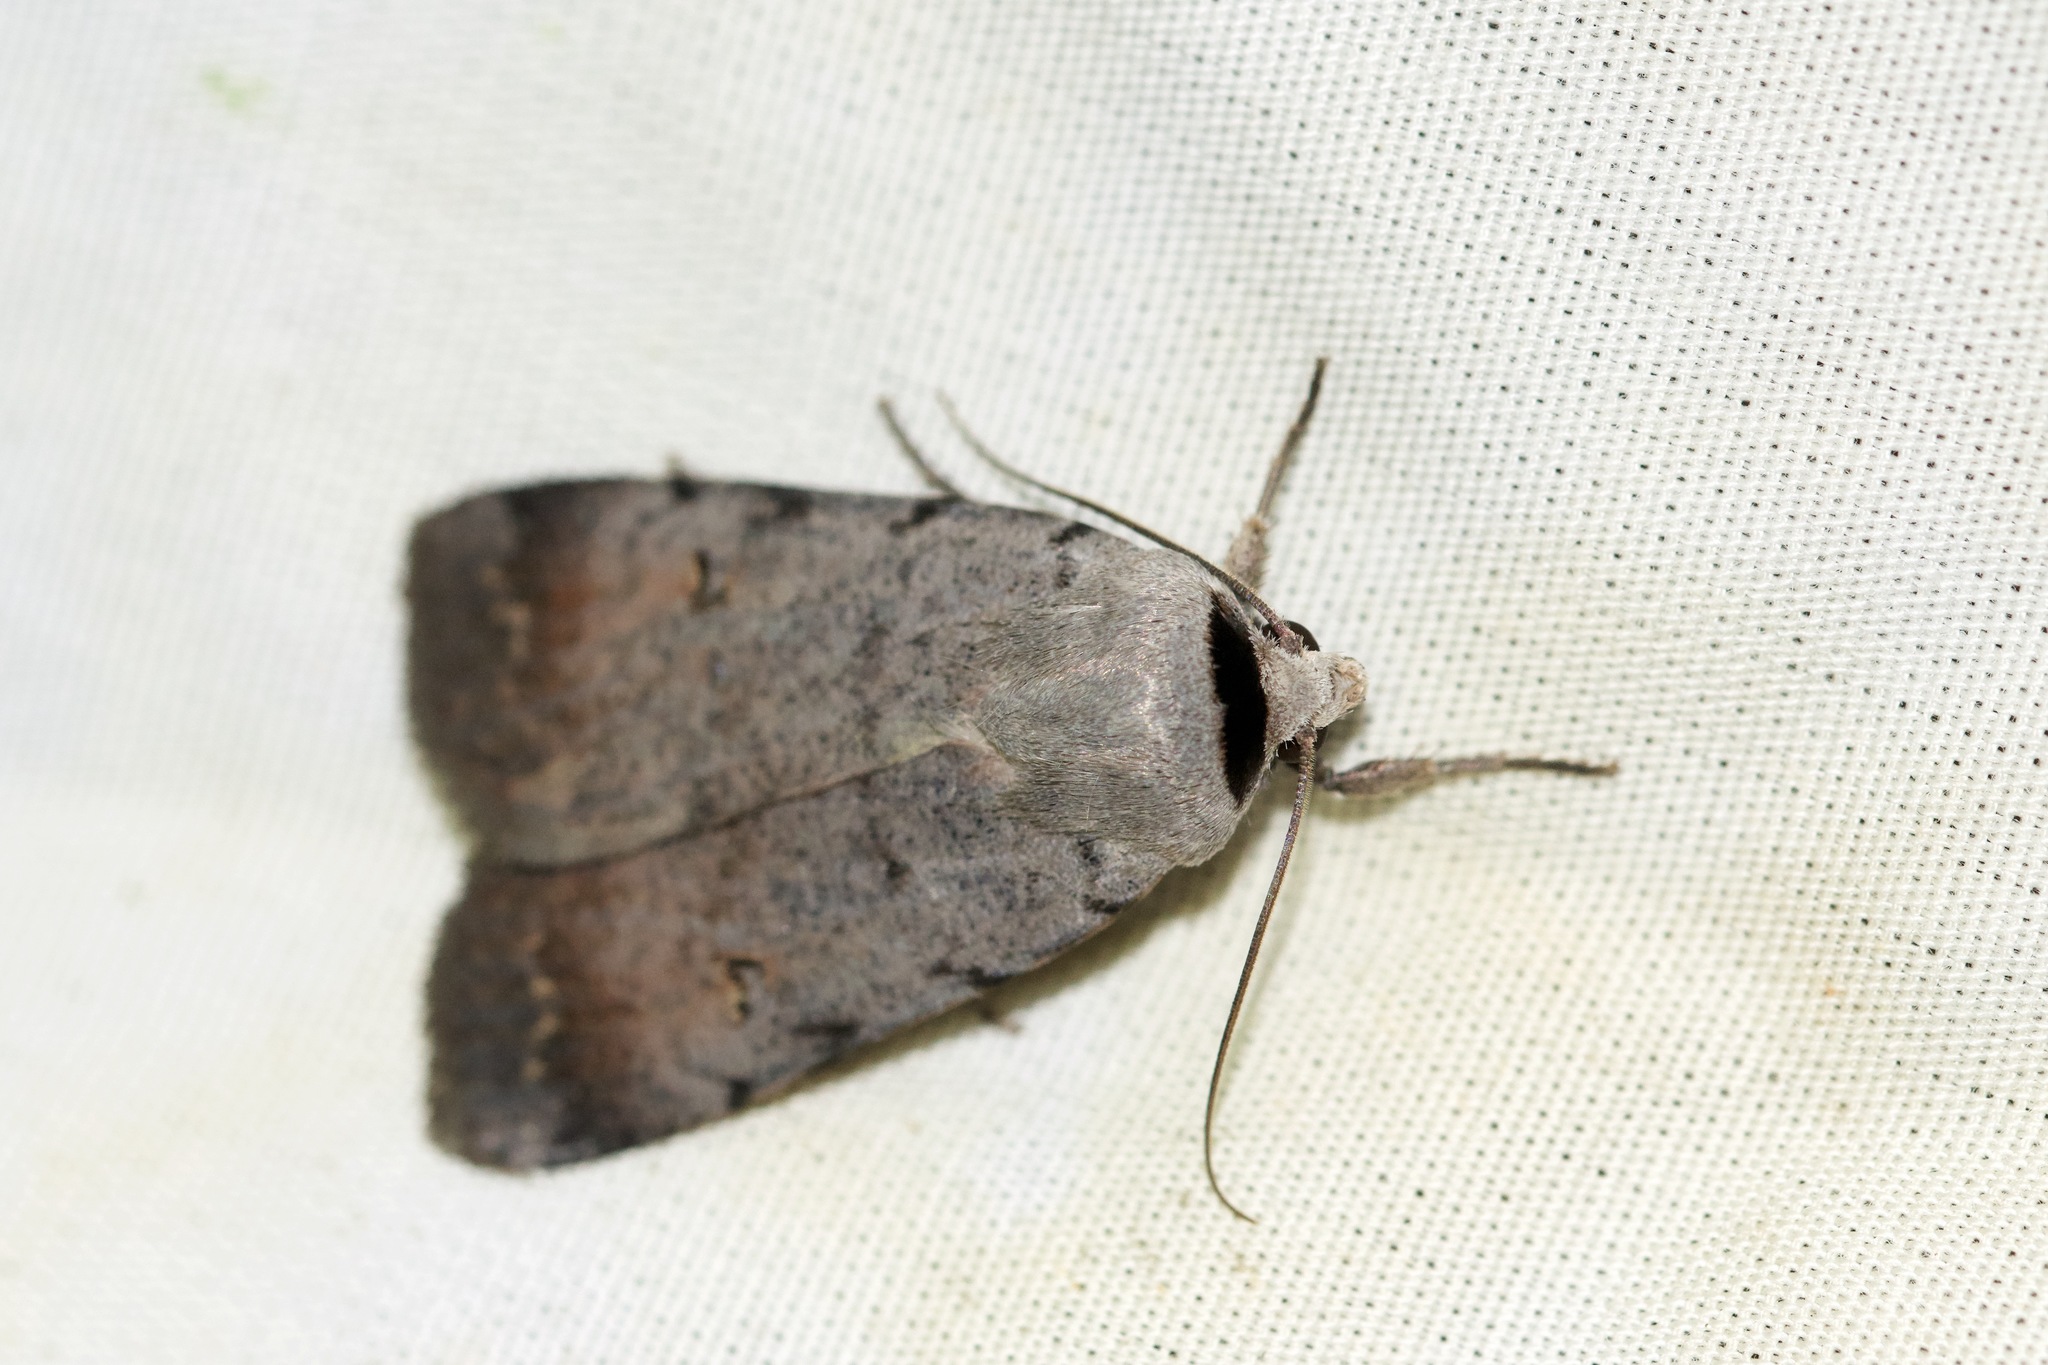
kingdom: Animalia
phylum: Arthropoda
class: Insecta
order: Lepidoptera
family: Noctuidae
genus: Anicla
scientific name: Anicla forbesi
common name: Forbes' dart
